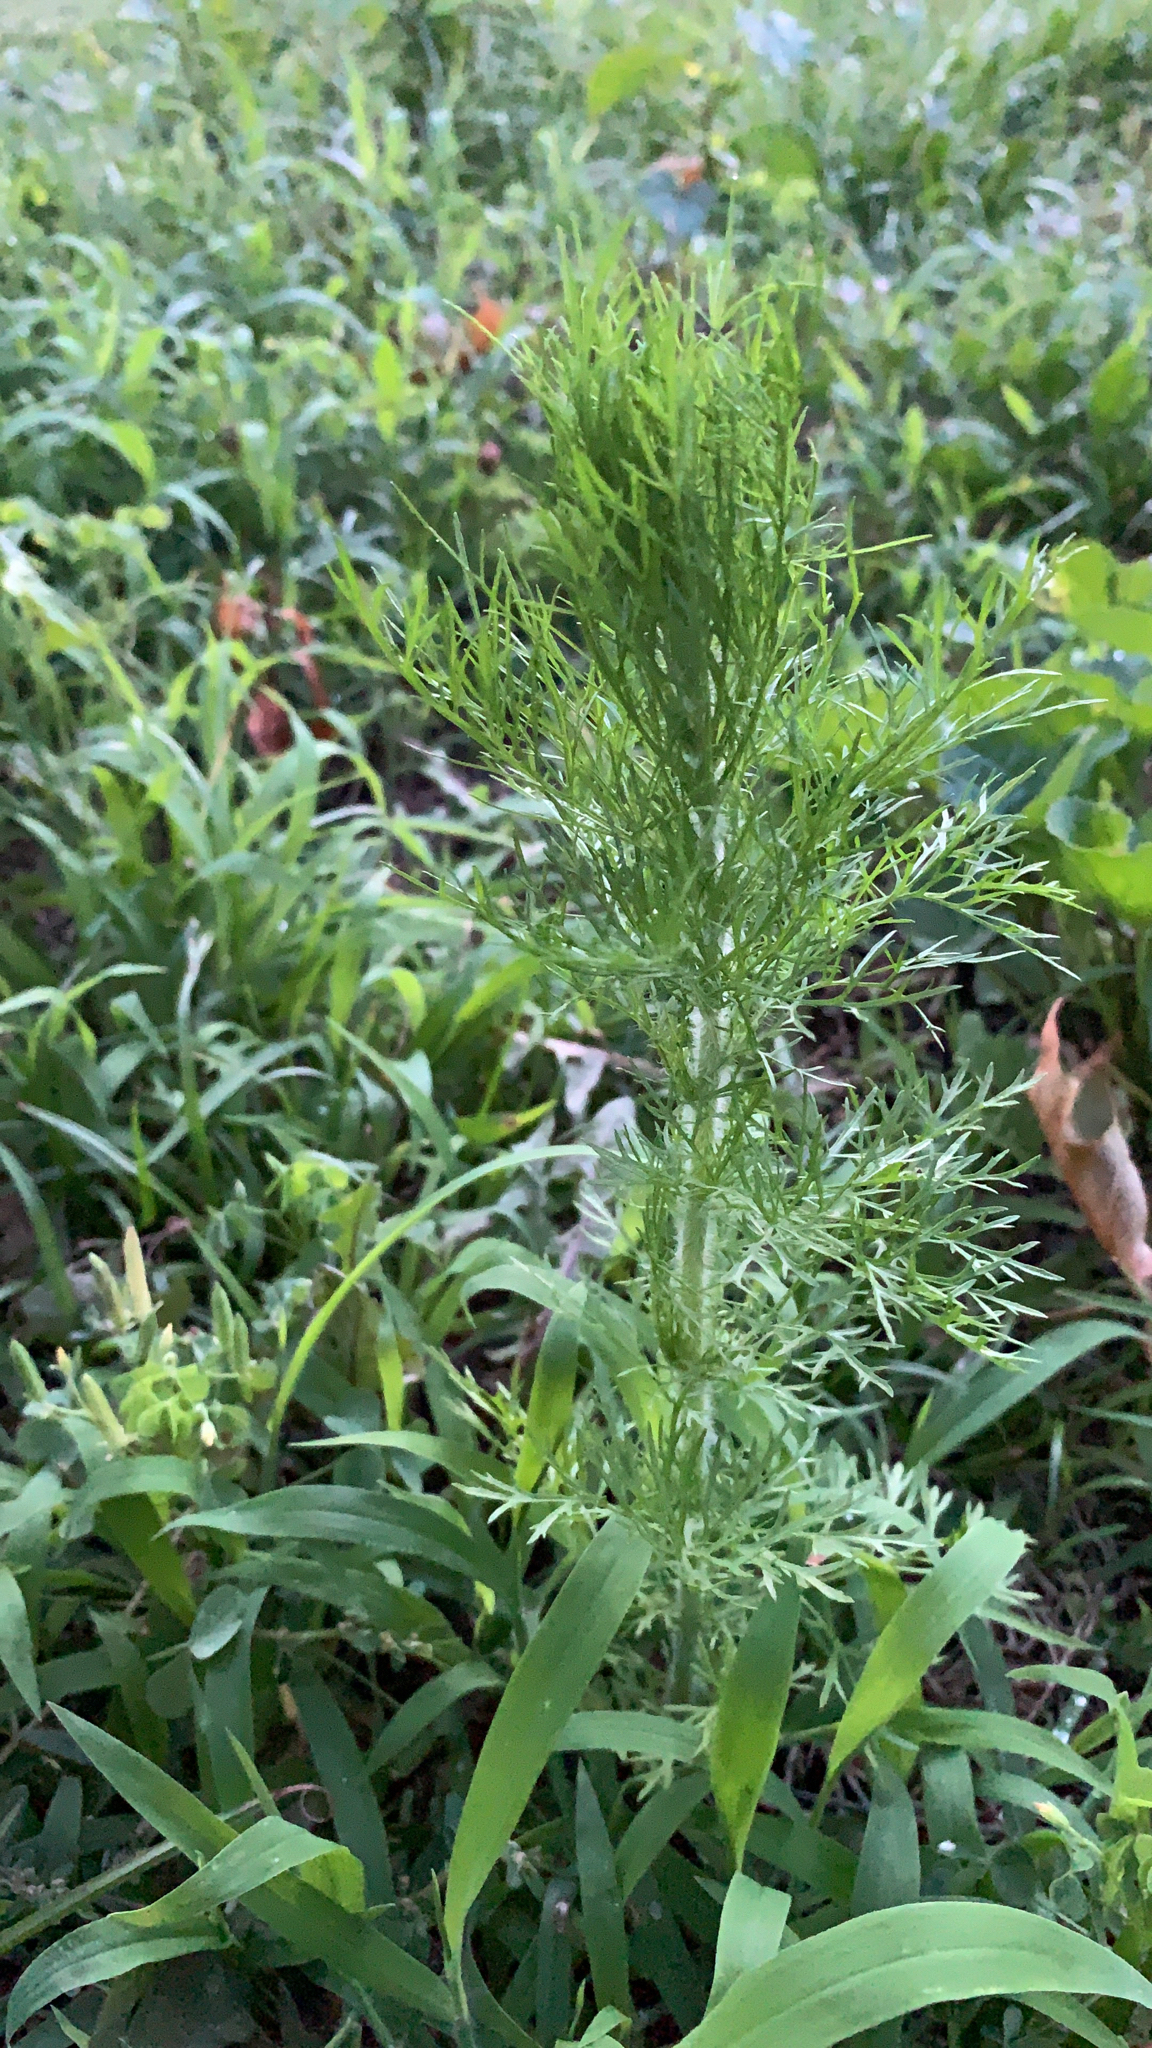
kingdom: Plantae
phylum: Tracheophyta
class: Magnoliopsida
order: Asterales
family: Asteraceae
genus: Eupatorium
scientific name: Eupatorium capillifolium
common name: Dog-fennel
